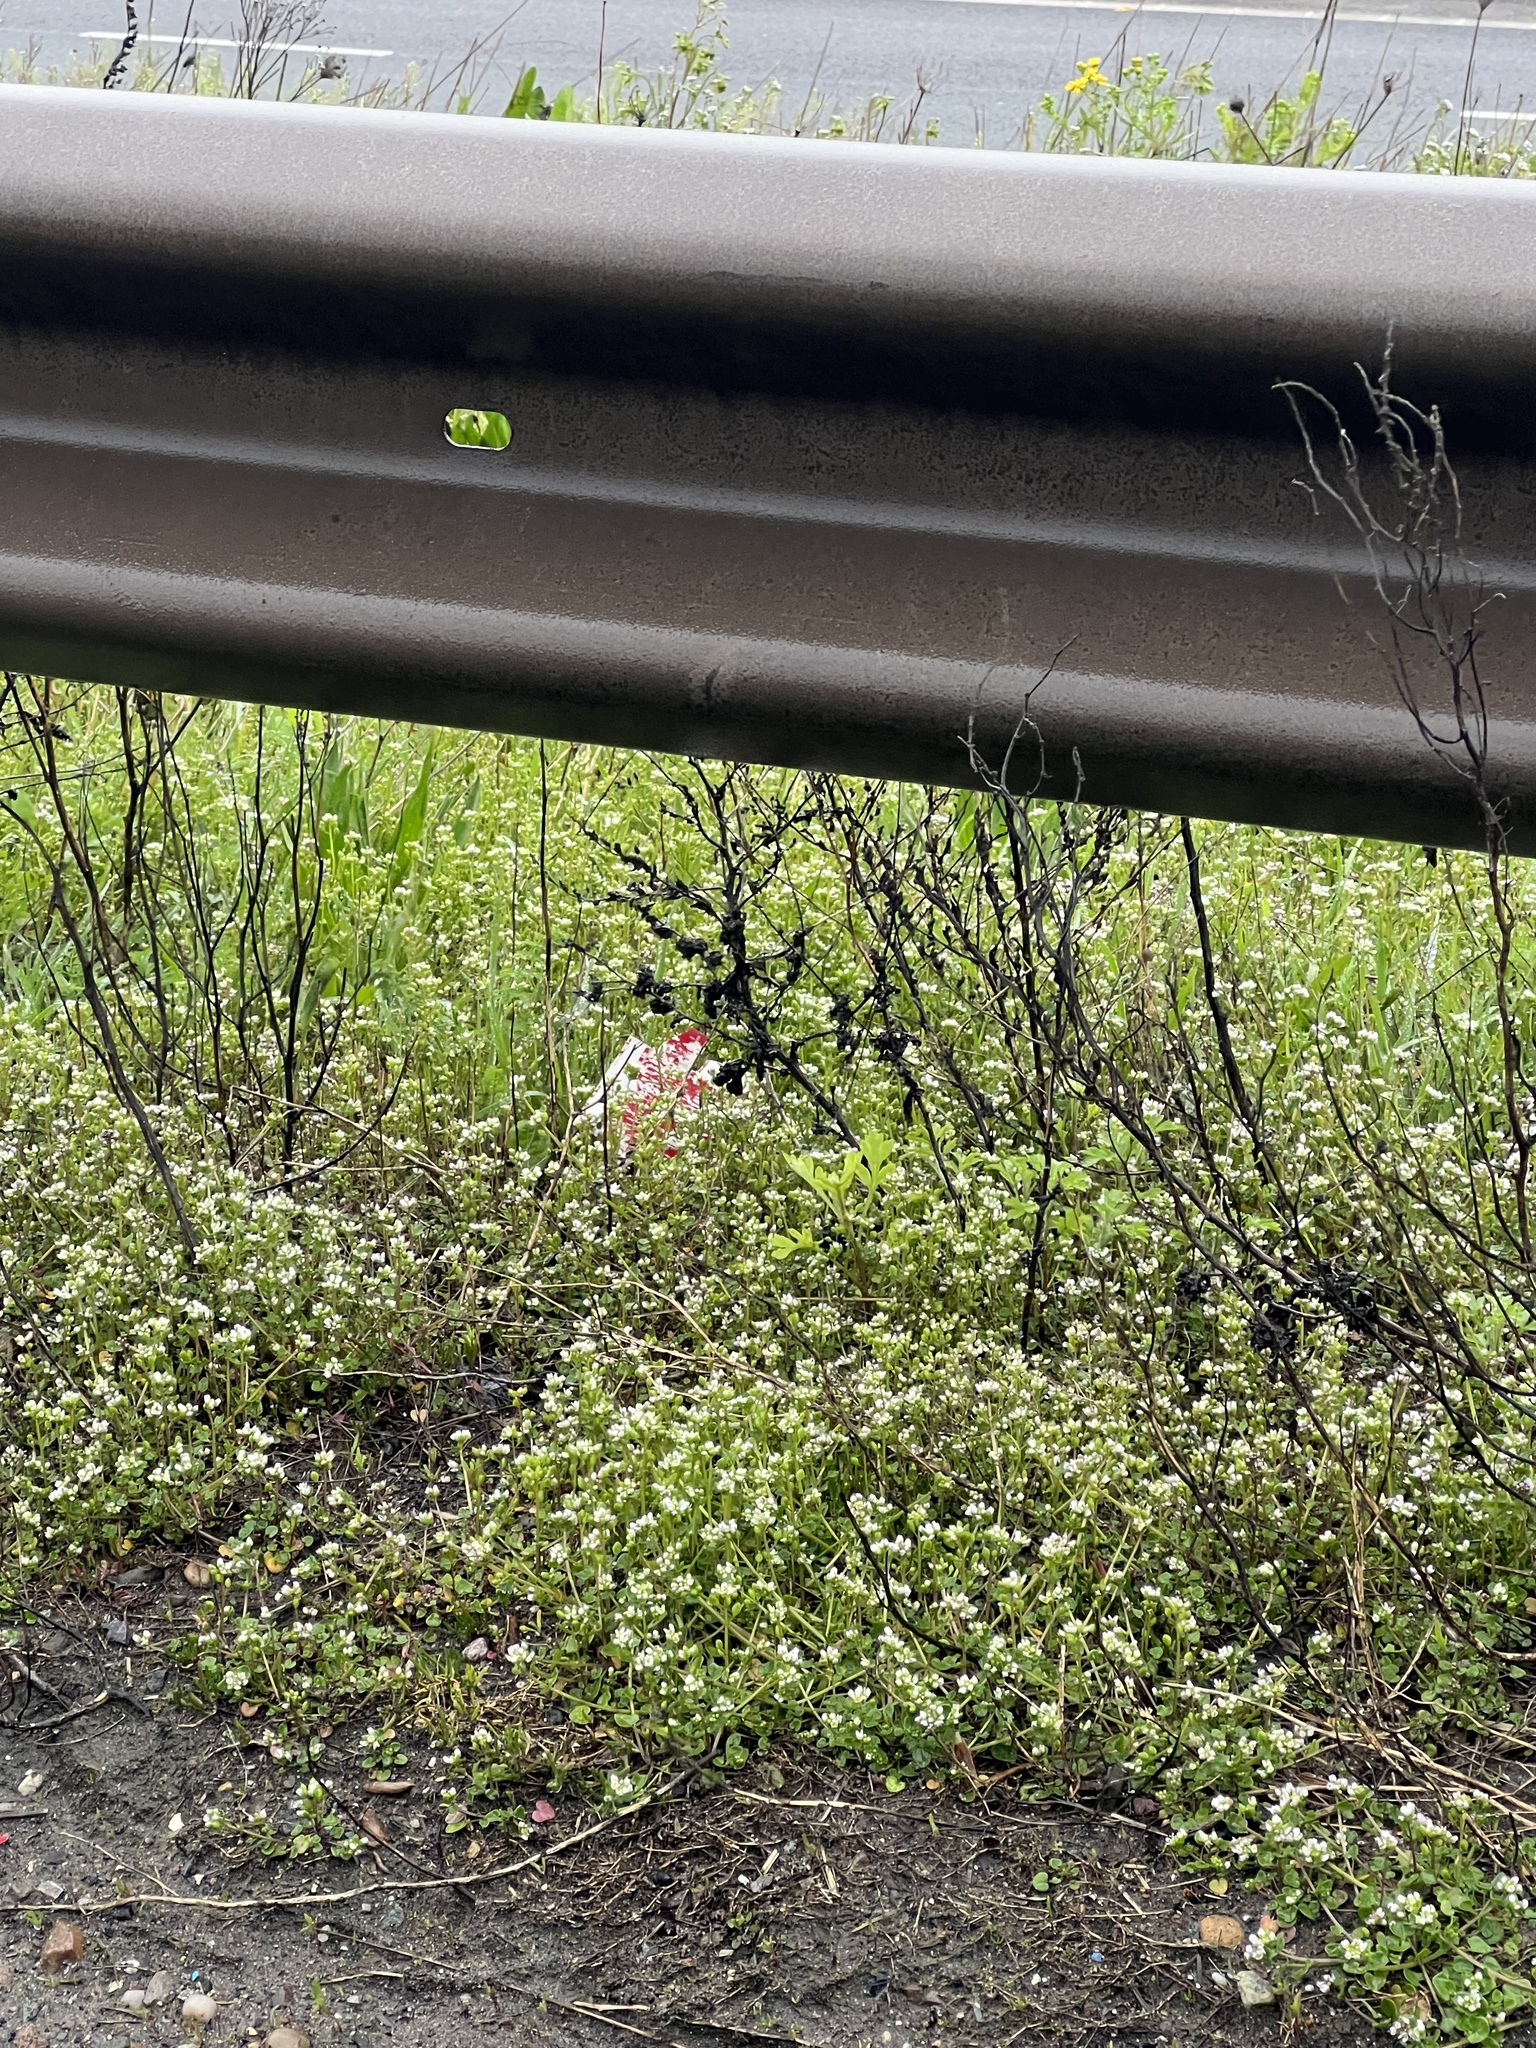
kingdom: Plantae
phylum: Tracheophyta
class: Magnoliopsida
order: Brassicales
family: Brassicaceae
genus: Cochlearia
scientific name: Cochlearia danica
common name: Early scurvygrass
